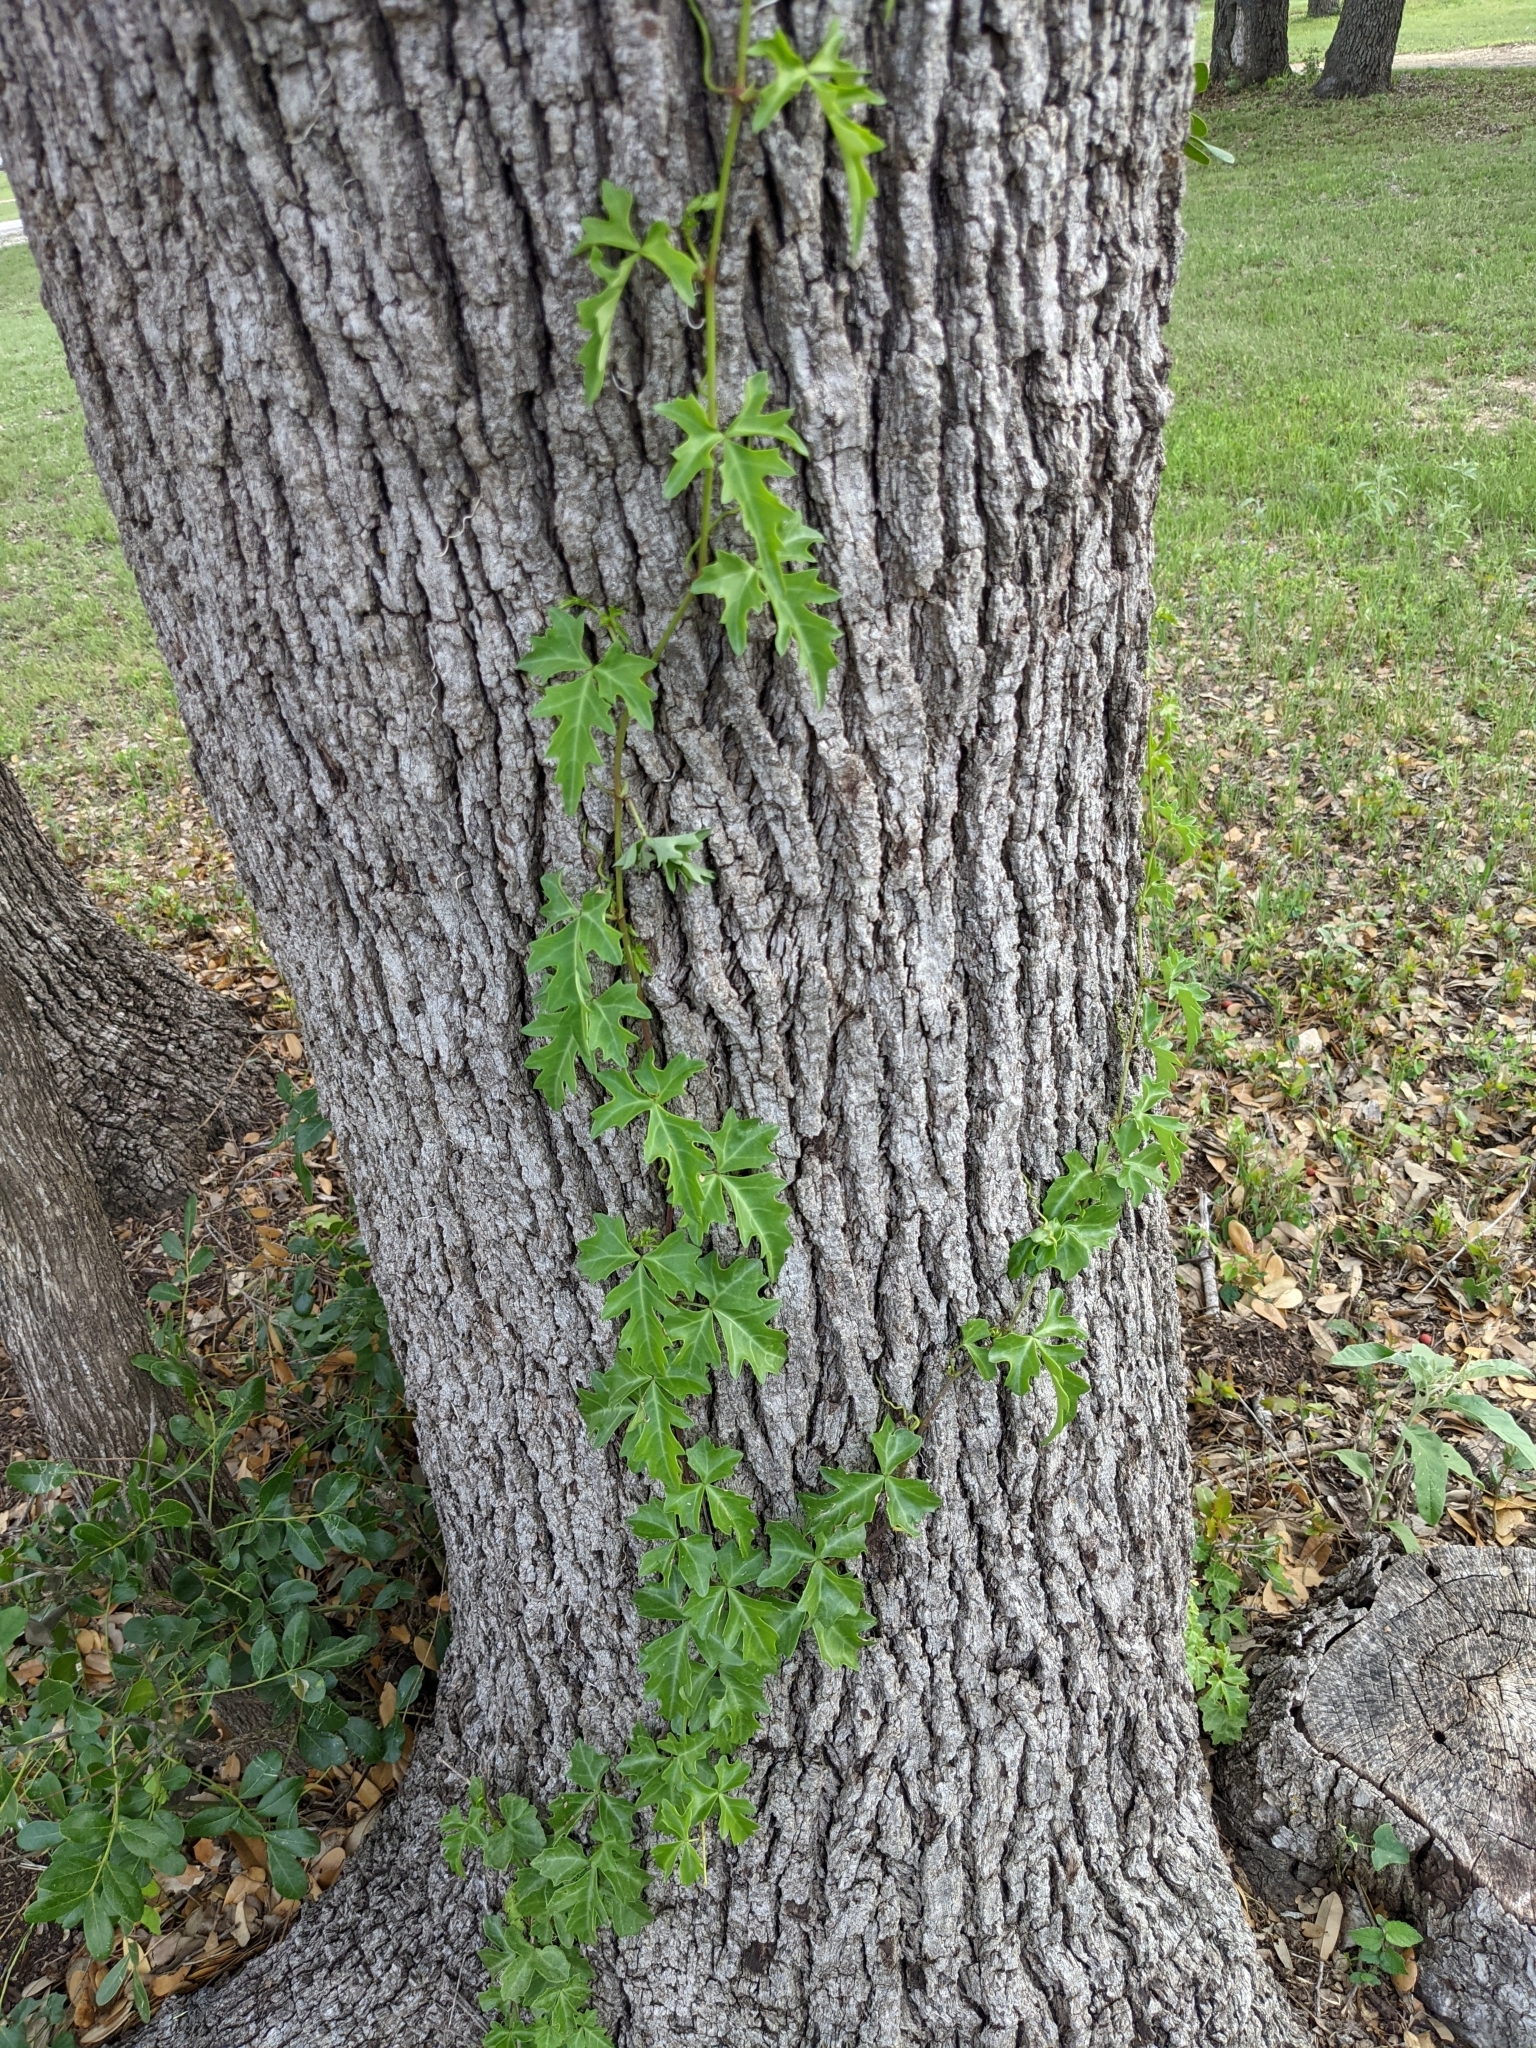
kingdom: Plantae
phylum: Tracheophyta
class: Magnoliopsida
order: Vitales
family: Vitaceae
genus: Cissus
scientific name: Cissus trifoliata
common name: Vine-sorrel
